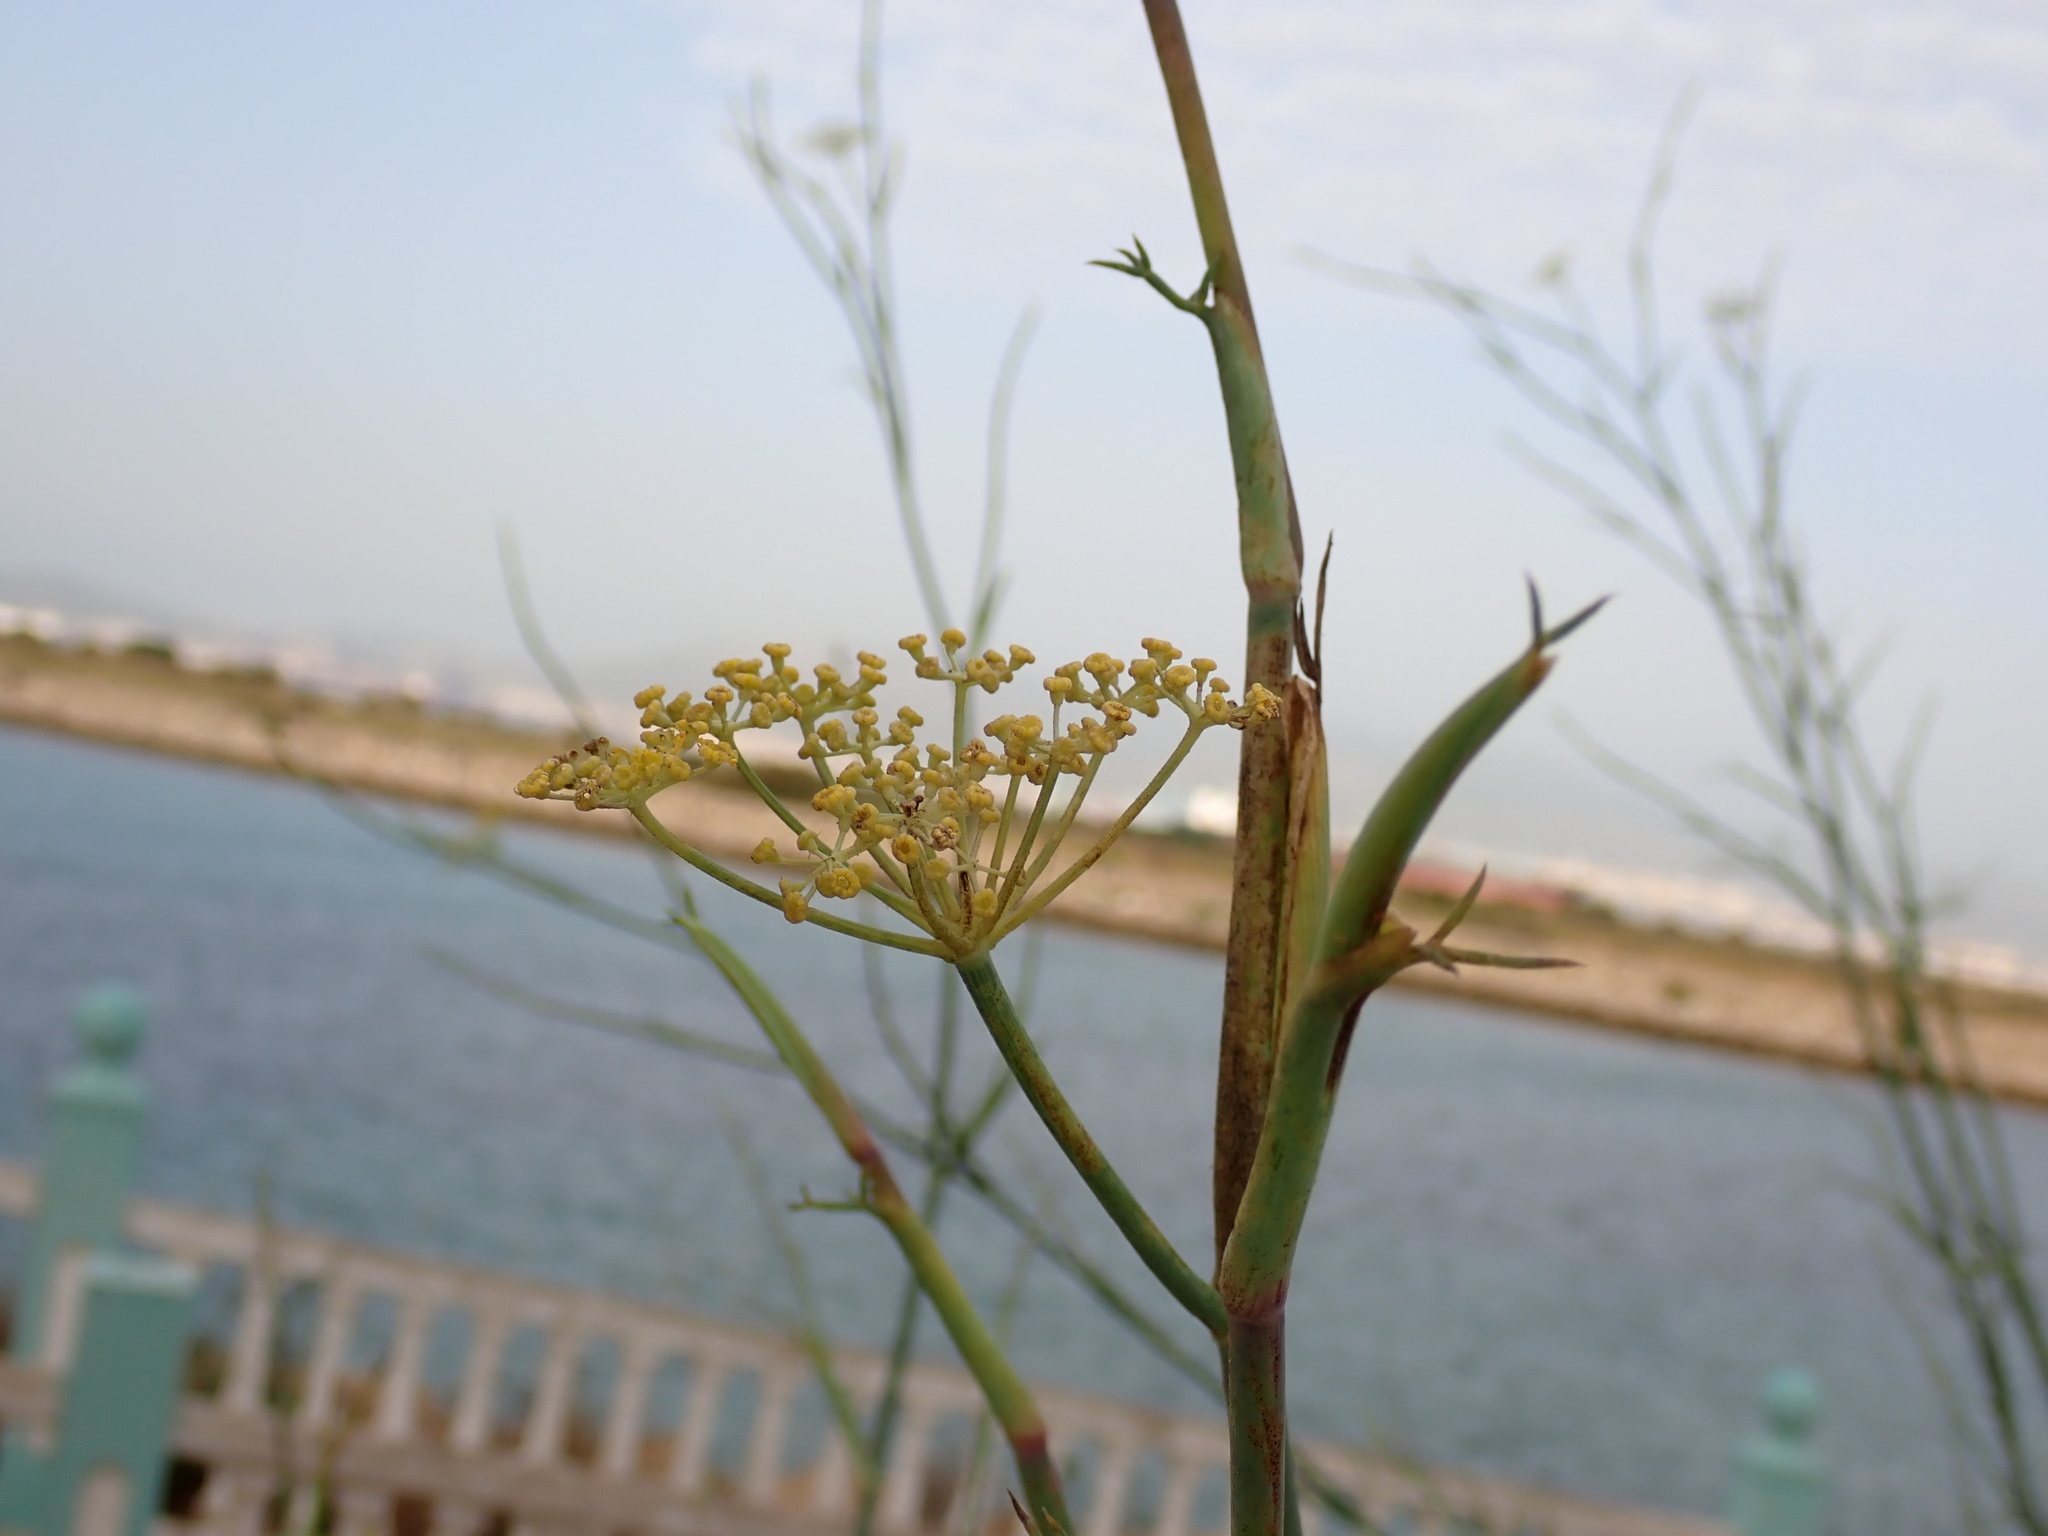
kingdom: Plantae
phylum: Tracheophyta
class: Magnoliopsida
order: Apiales
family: Apiaceae
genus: Foeniculum
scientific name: Foeniculum vulgare
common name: Fennel
